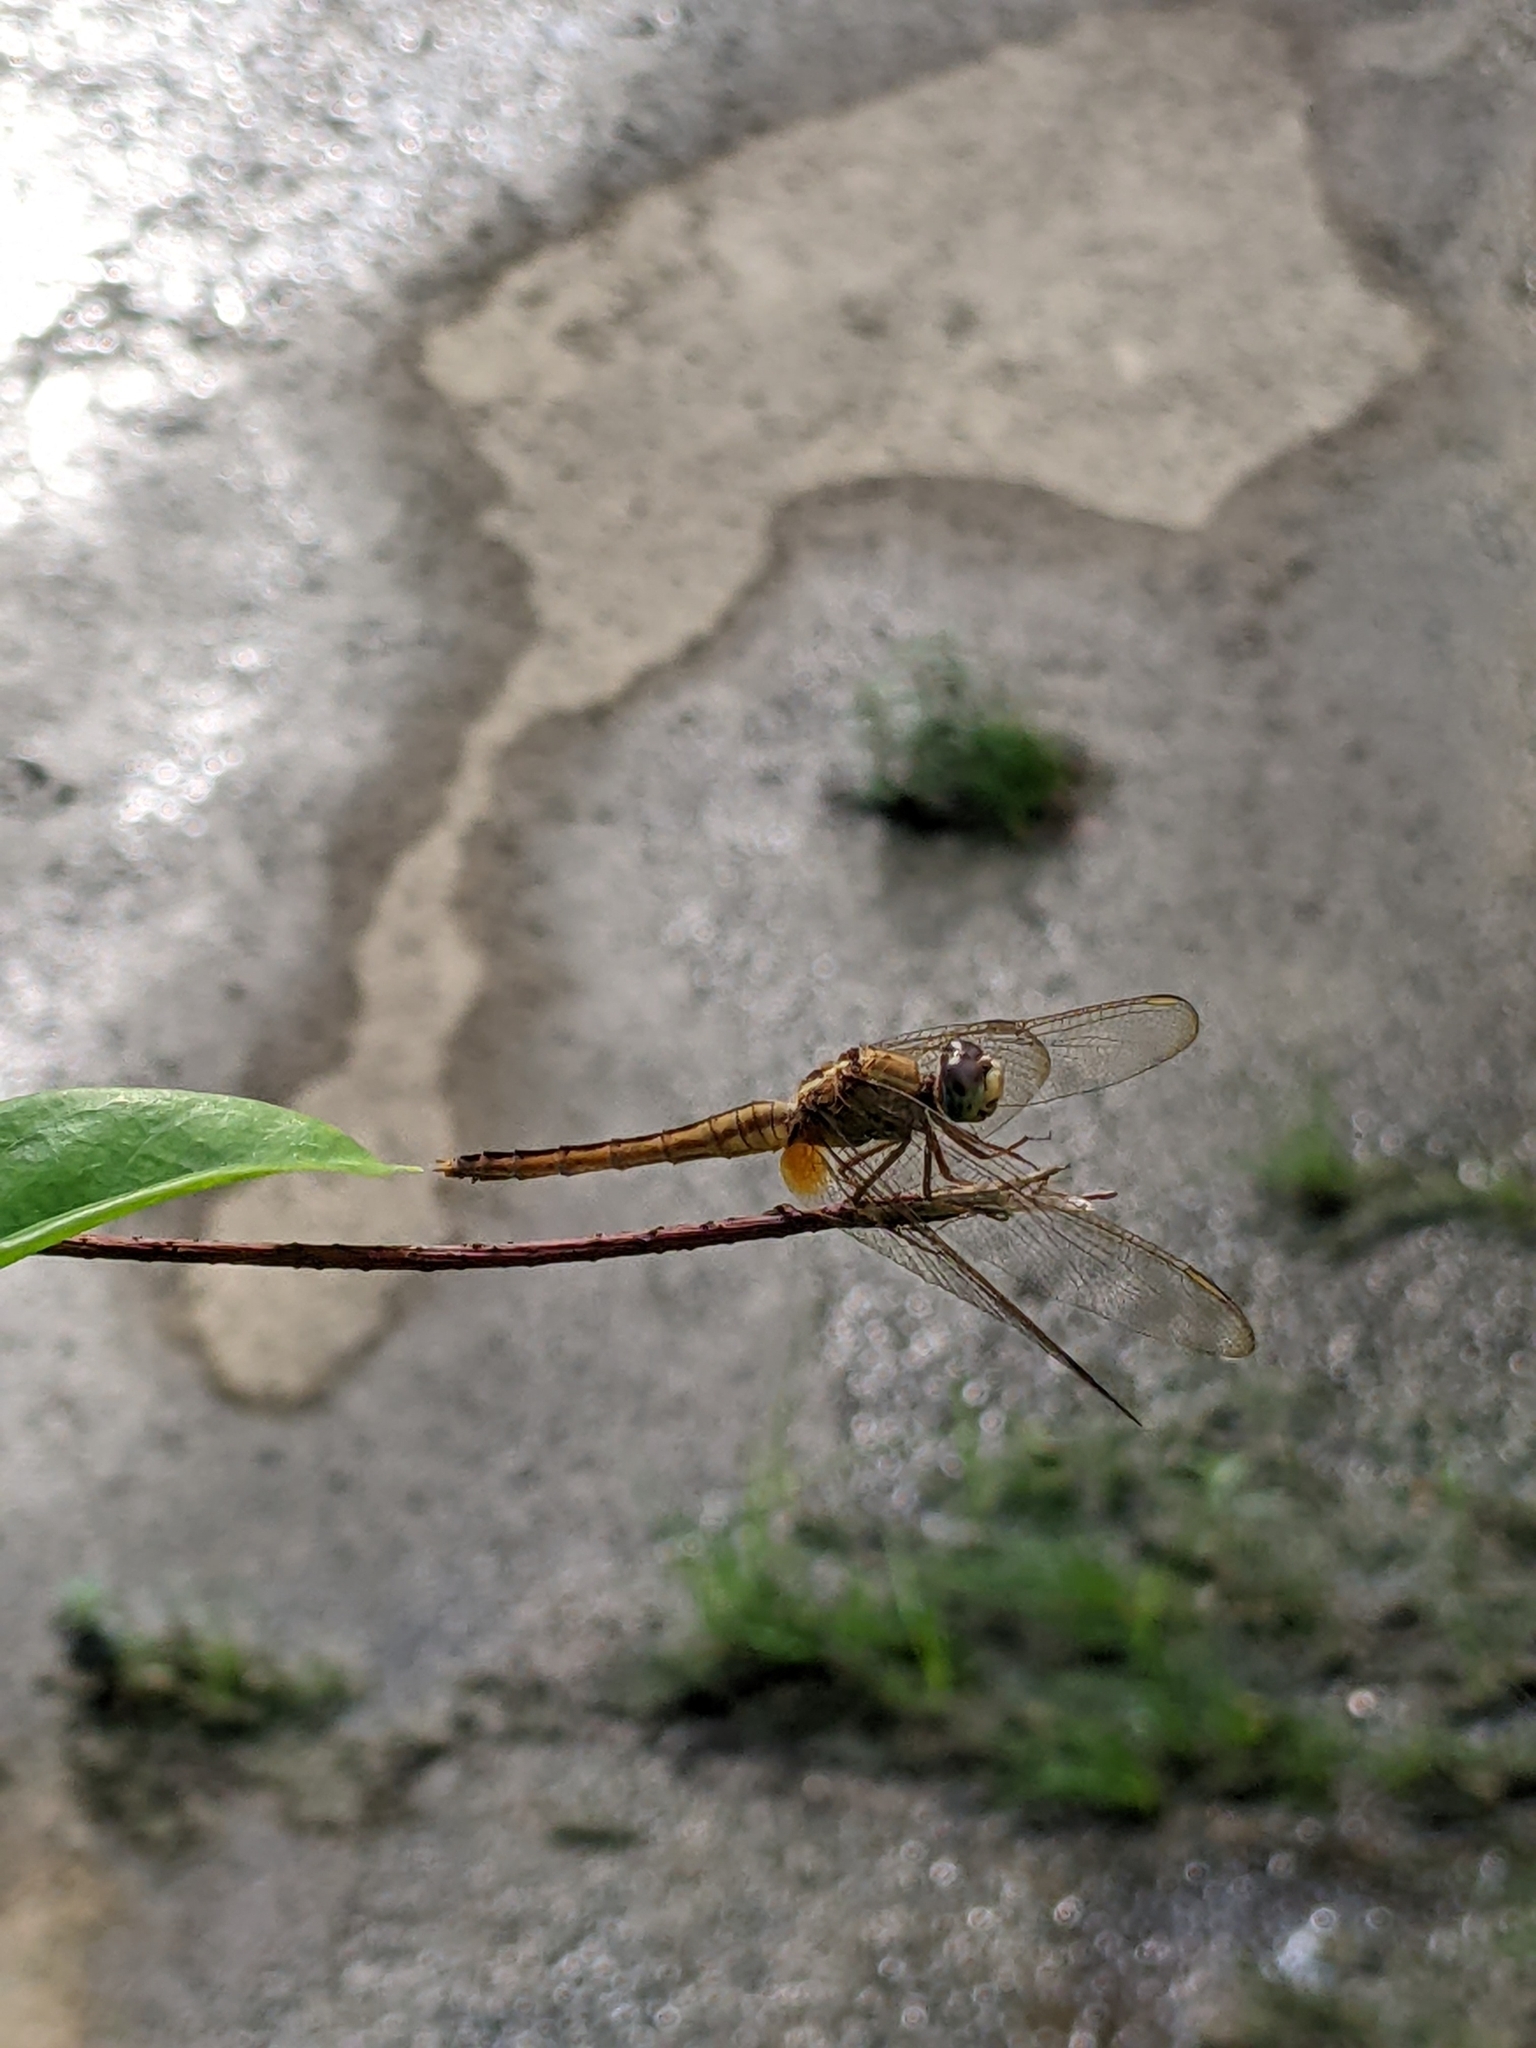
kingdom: Animalia
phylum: Arthropoda
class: Insecta
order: Odonata
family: Libellulidae
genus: Trithemis
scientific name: Trithemis aurora
